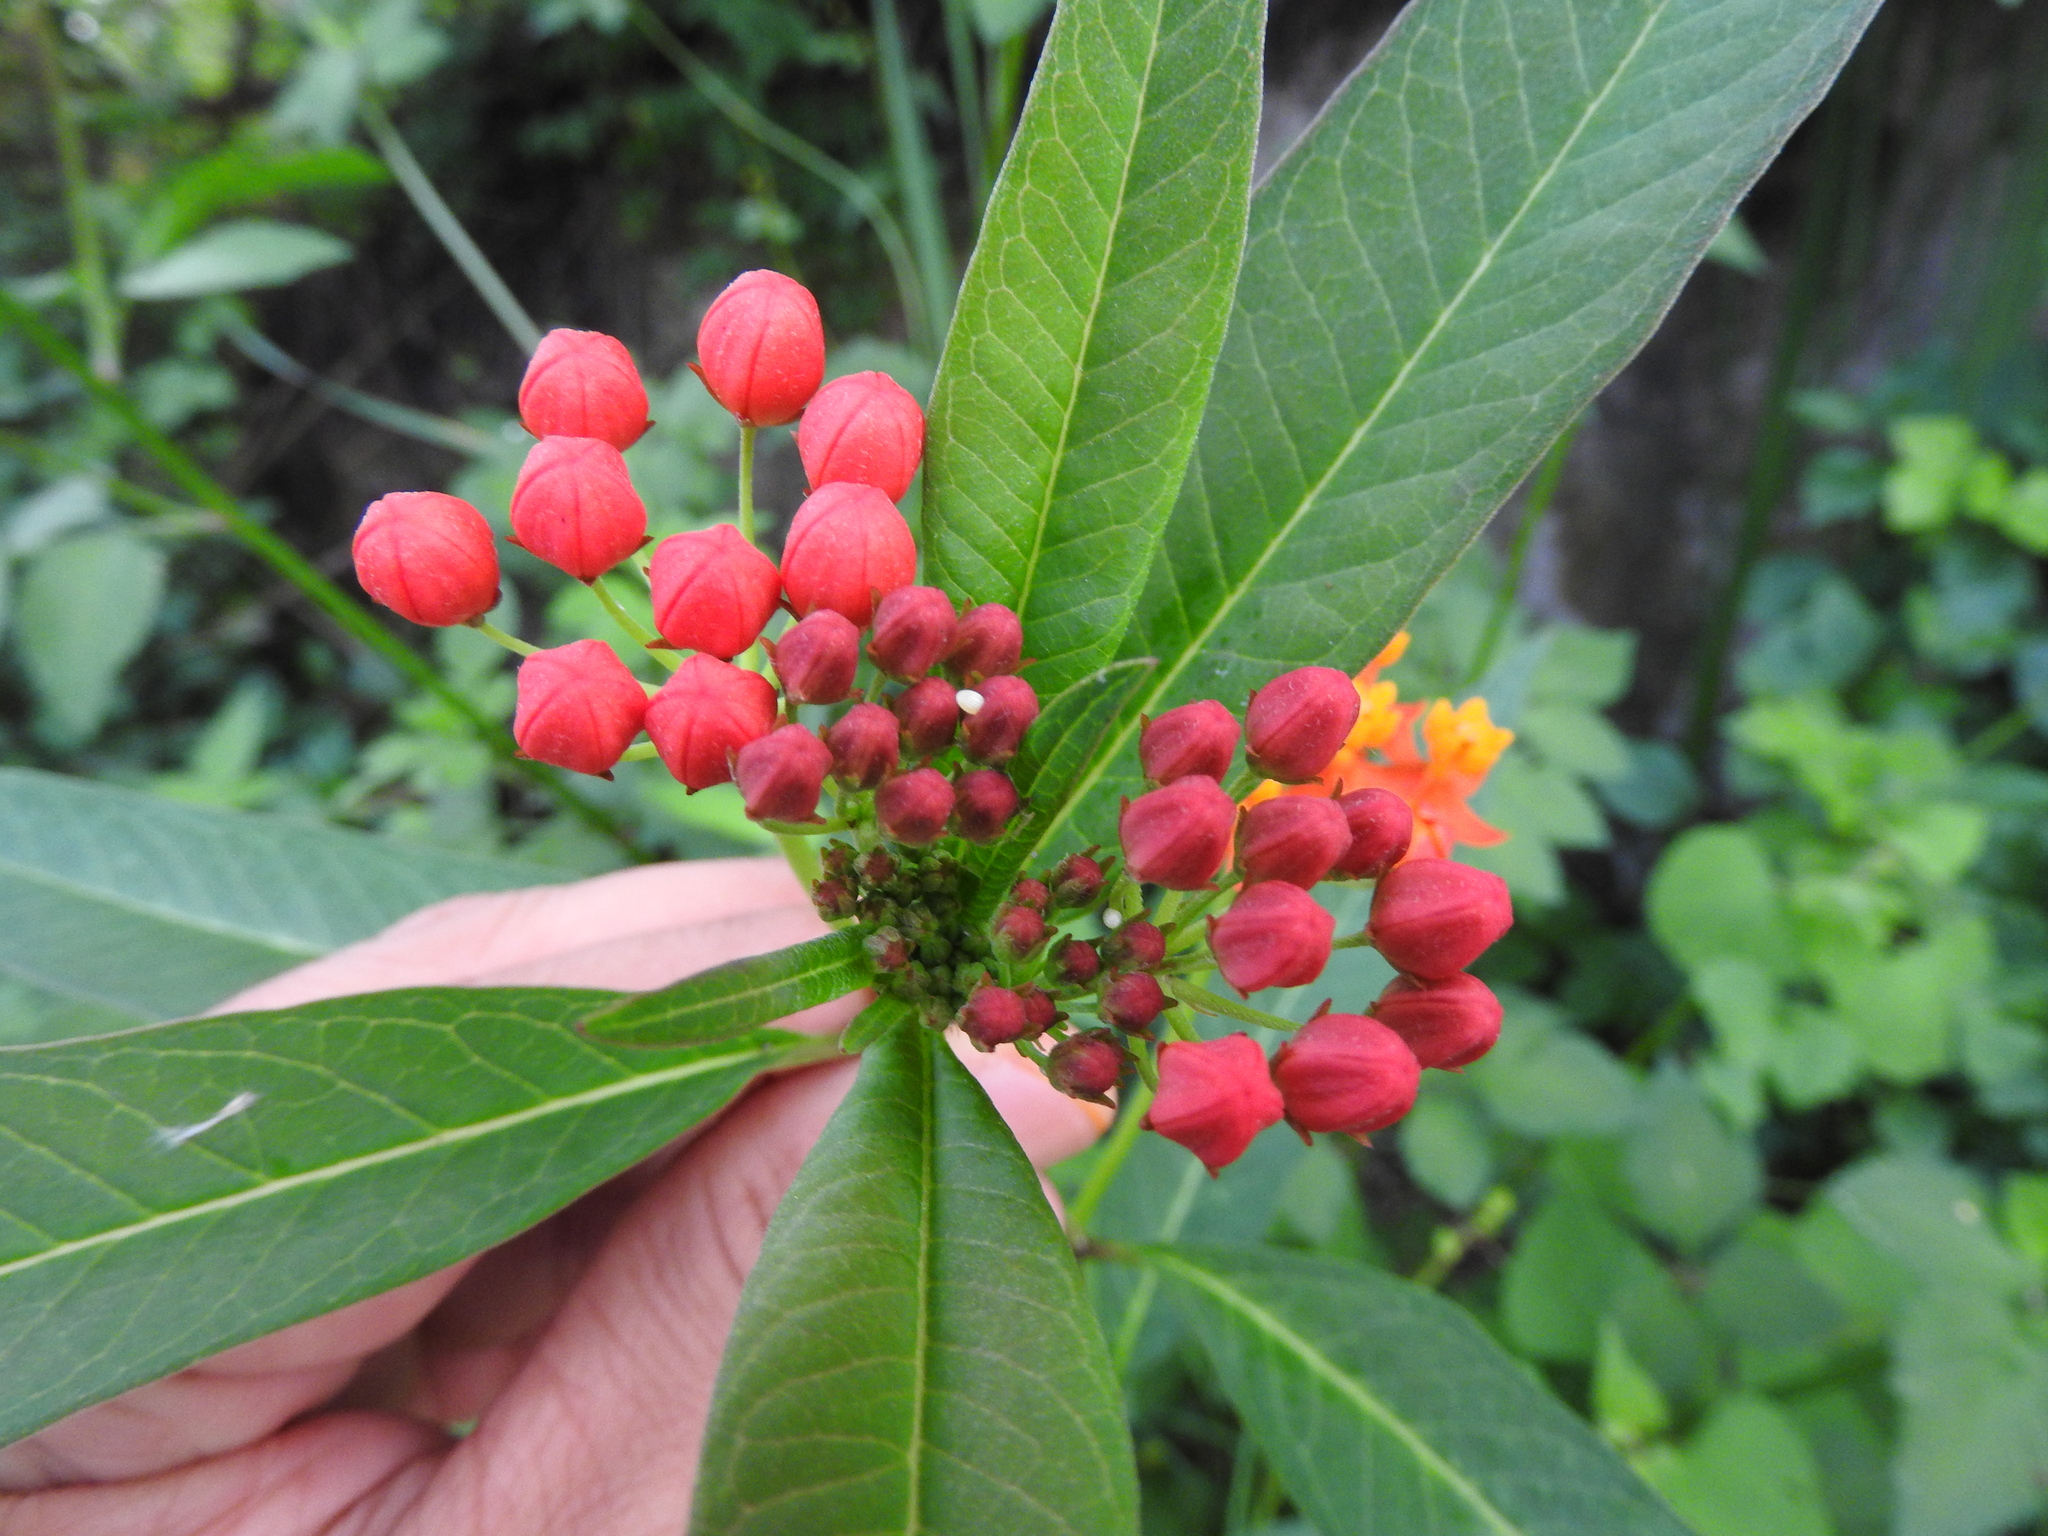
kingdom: Plantae
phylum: Tracheophyta
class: Magnoliopsida
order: Gentianales
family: Apocynaceae
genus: Asclepias
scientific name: Asclepias curassavica
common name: Bloodflower
